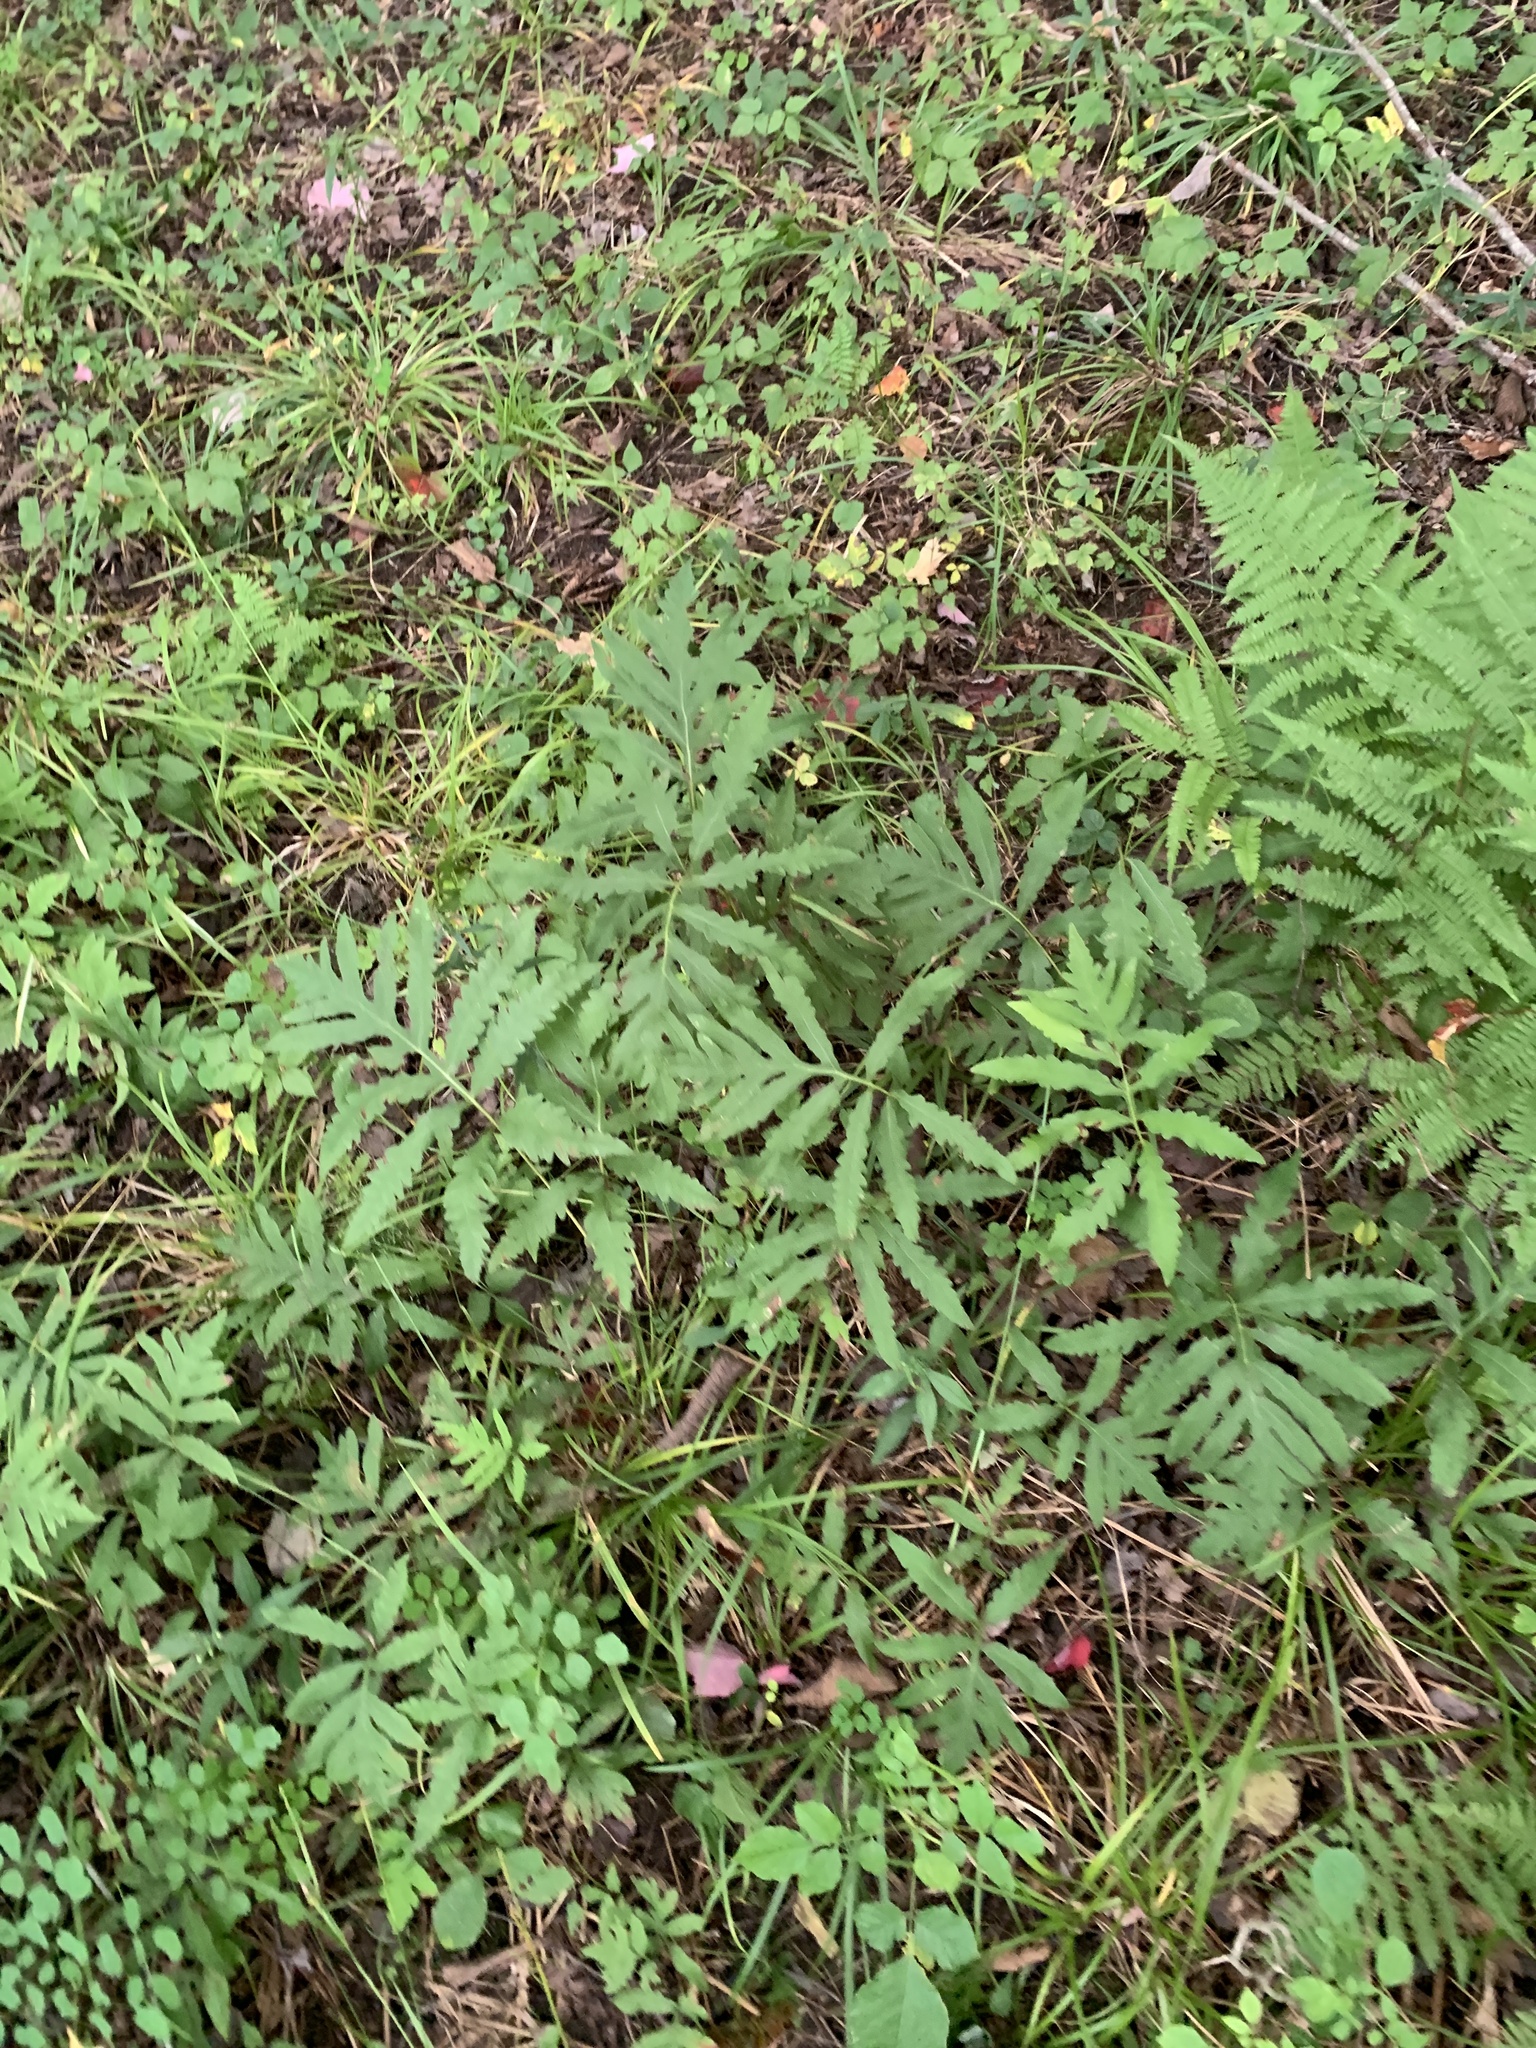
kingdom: Plantae
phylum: Tracheophyta
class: Polypodiopsida
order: Polypodiales
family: Onocleaceae
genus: Onoclea
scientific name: Onoclea sensibilis
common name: Sensitive fern
